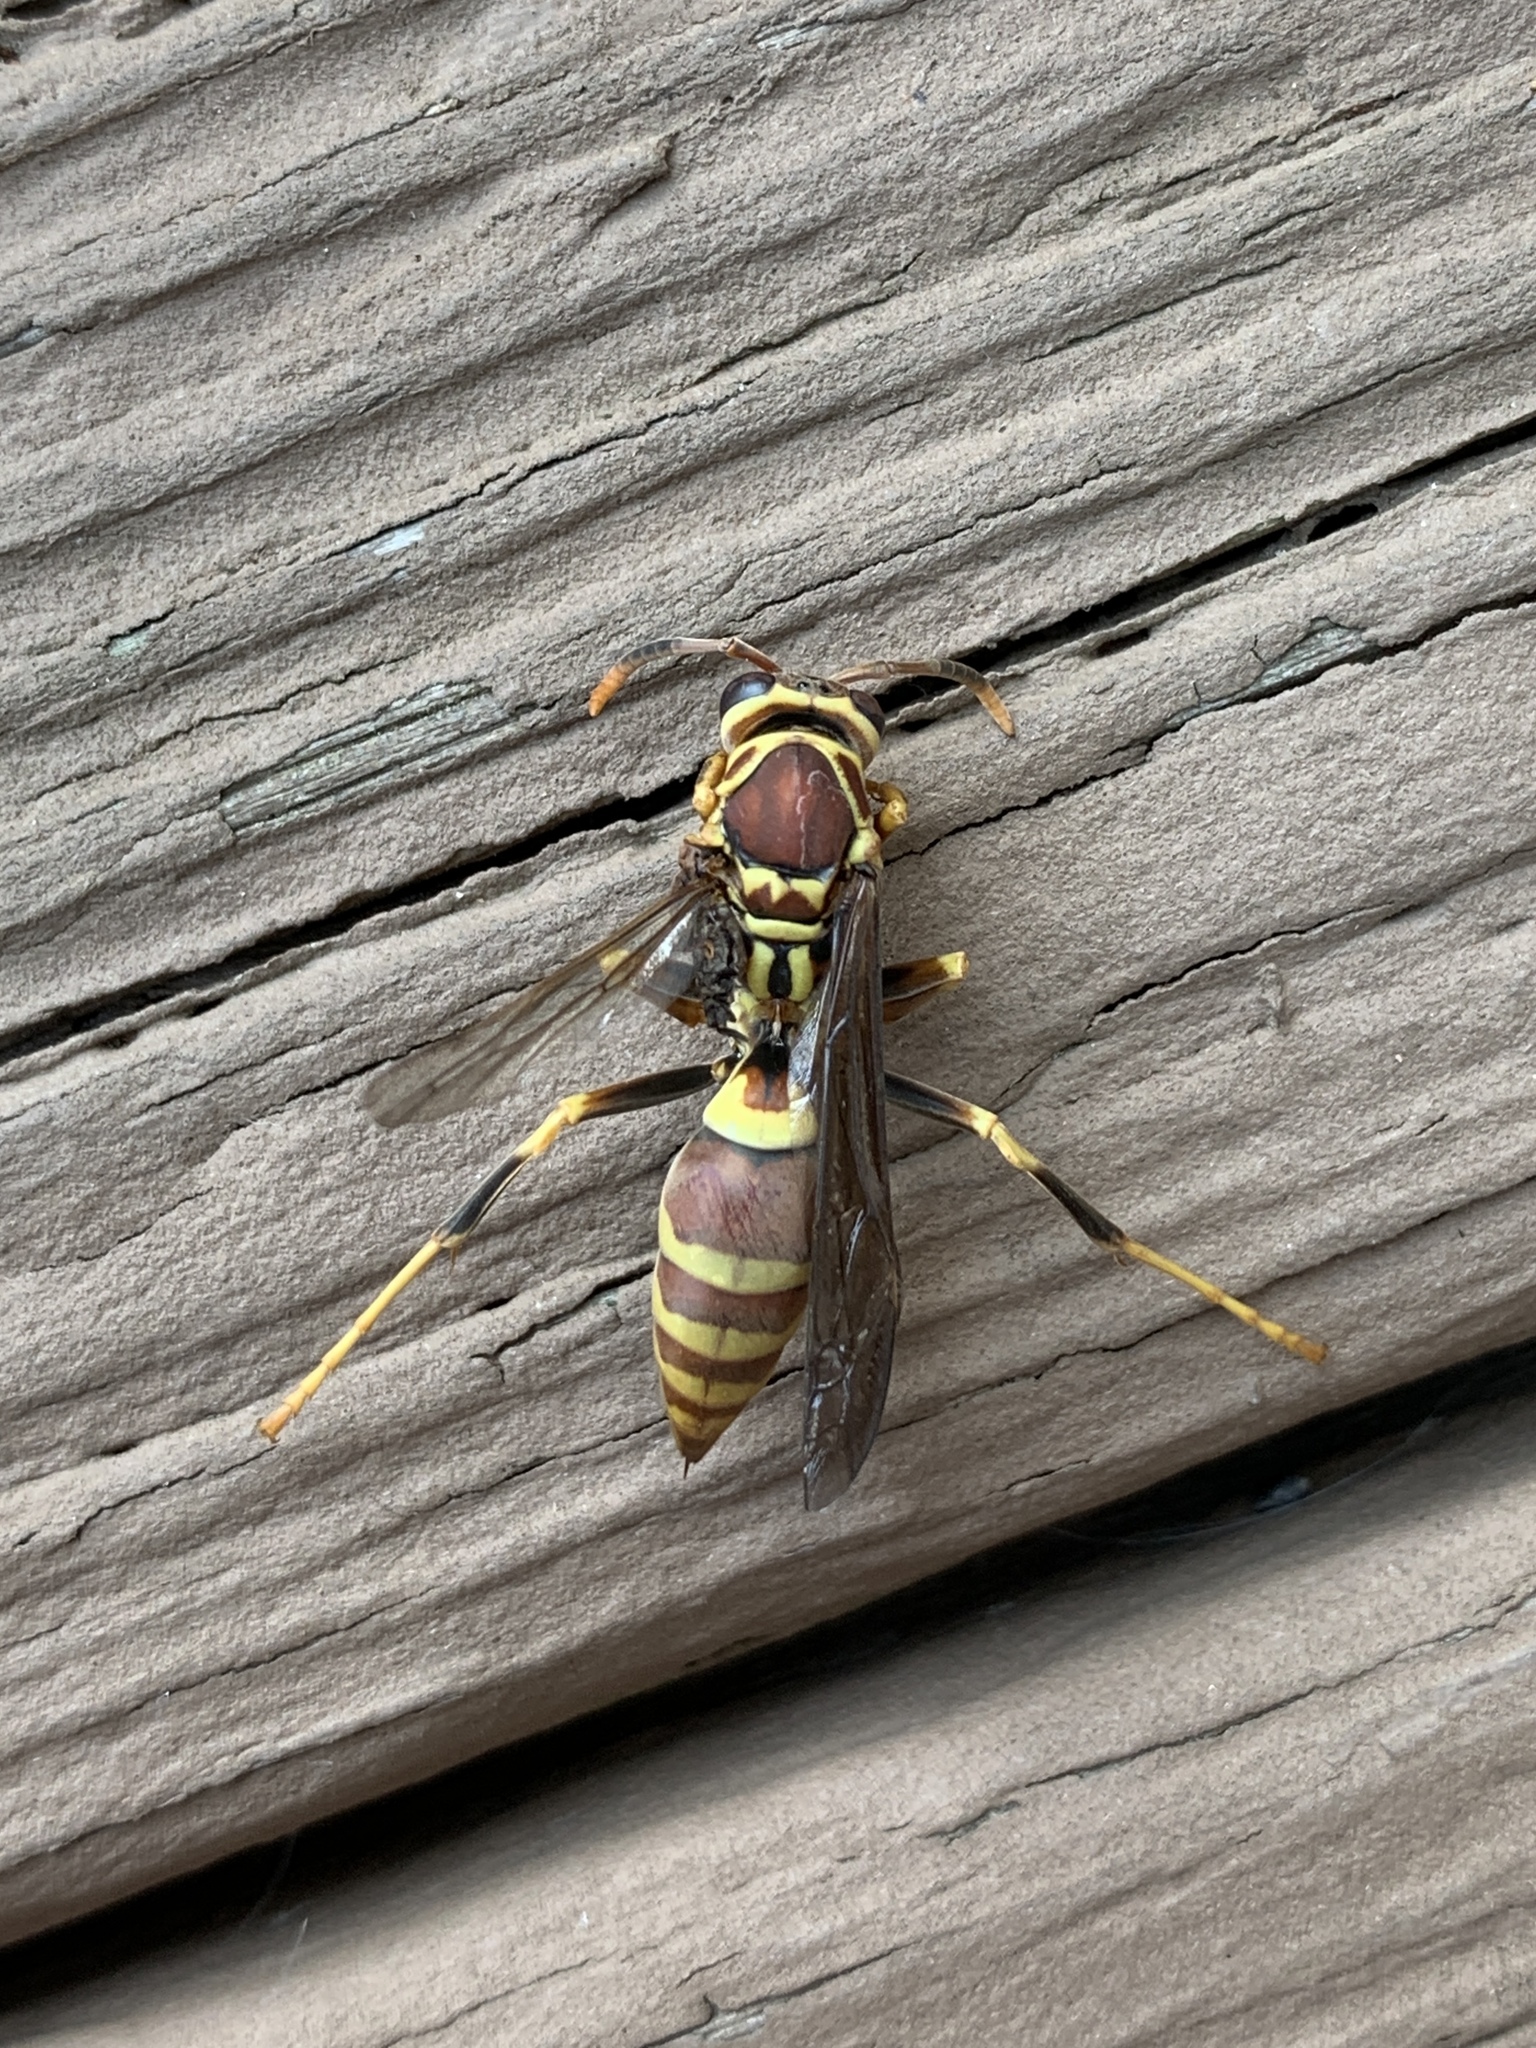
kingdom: Animalia
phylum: Arthropoda
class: Insecta
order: Hymenoptera
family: Eumenidae
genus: Polistes
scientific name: Polistes exclamans
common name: Paper wasp
